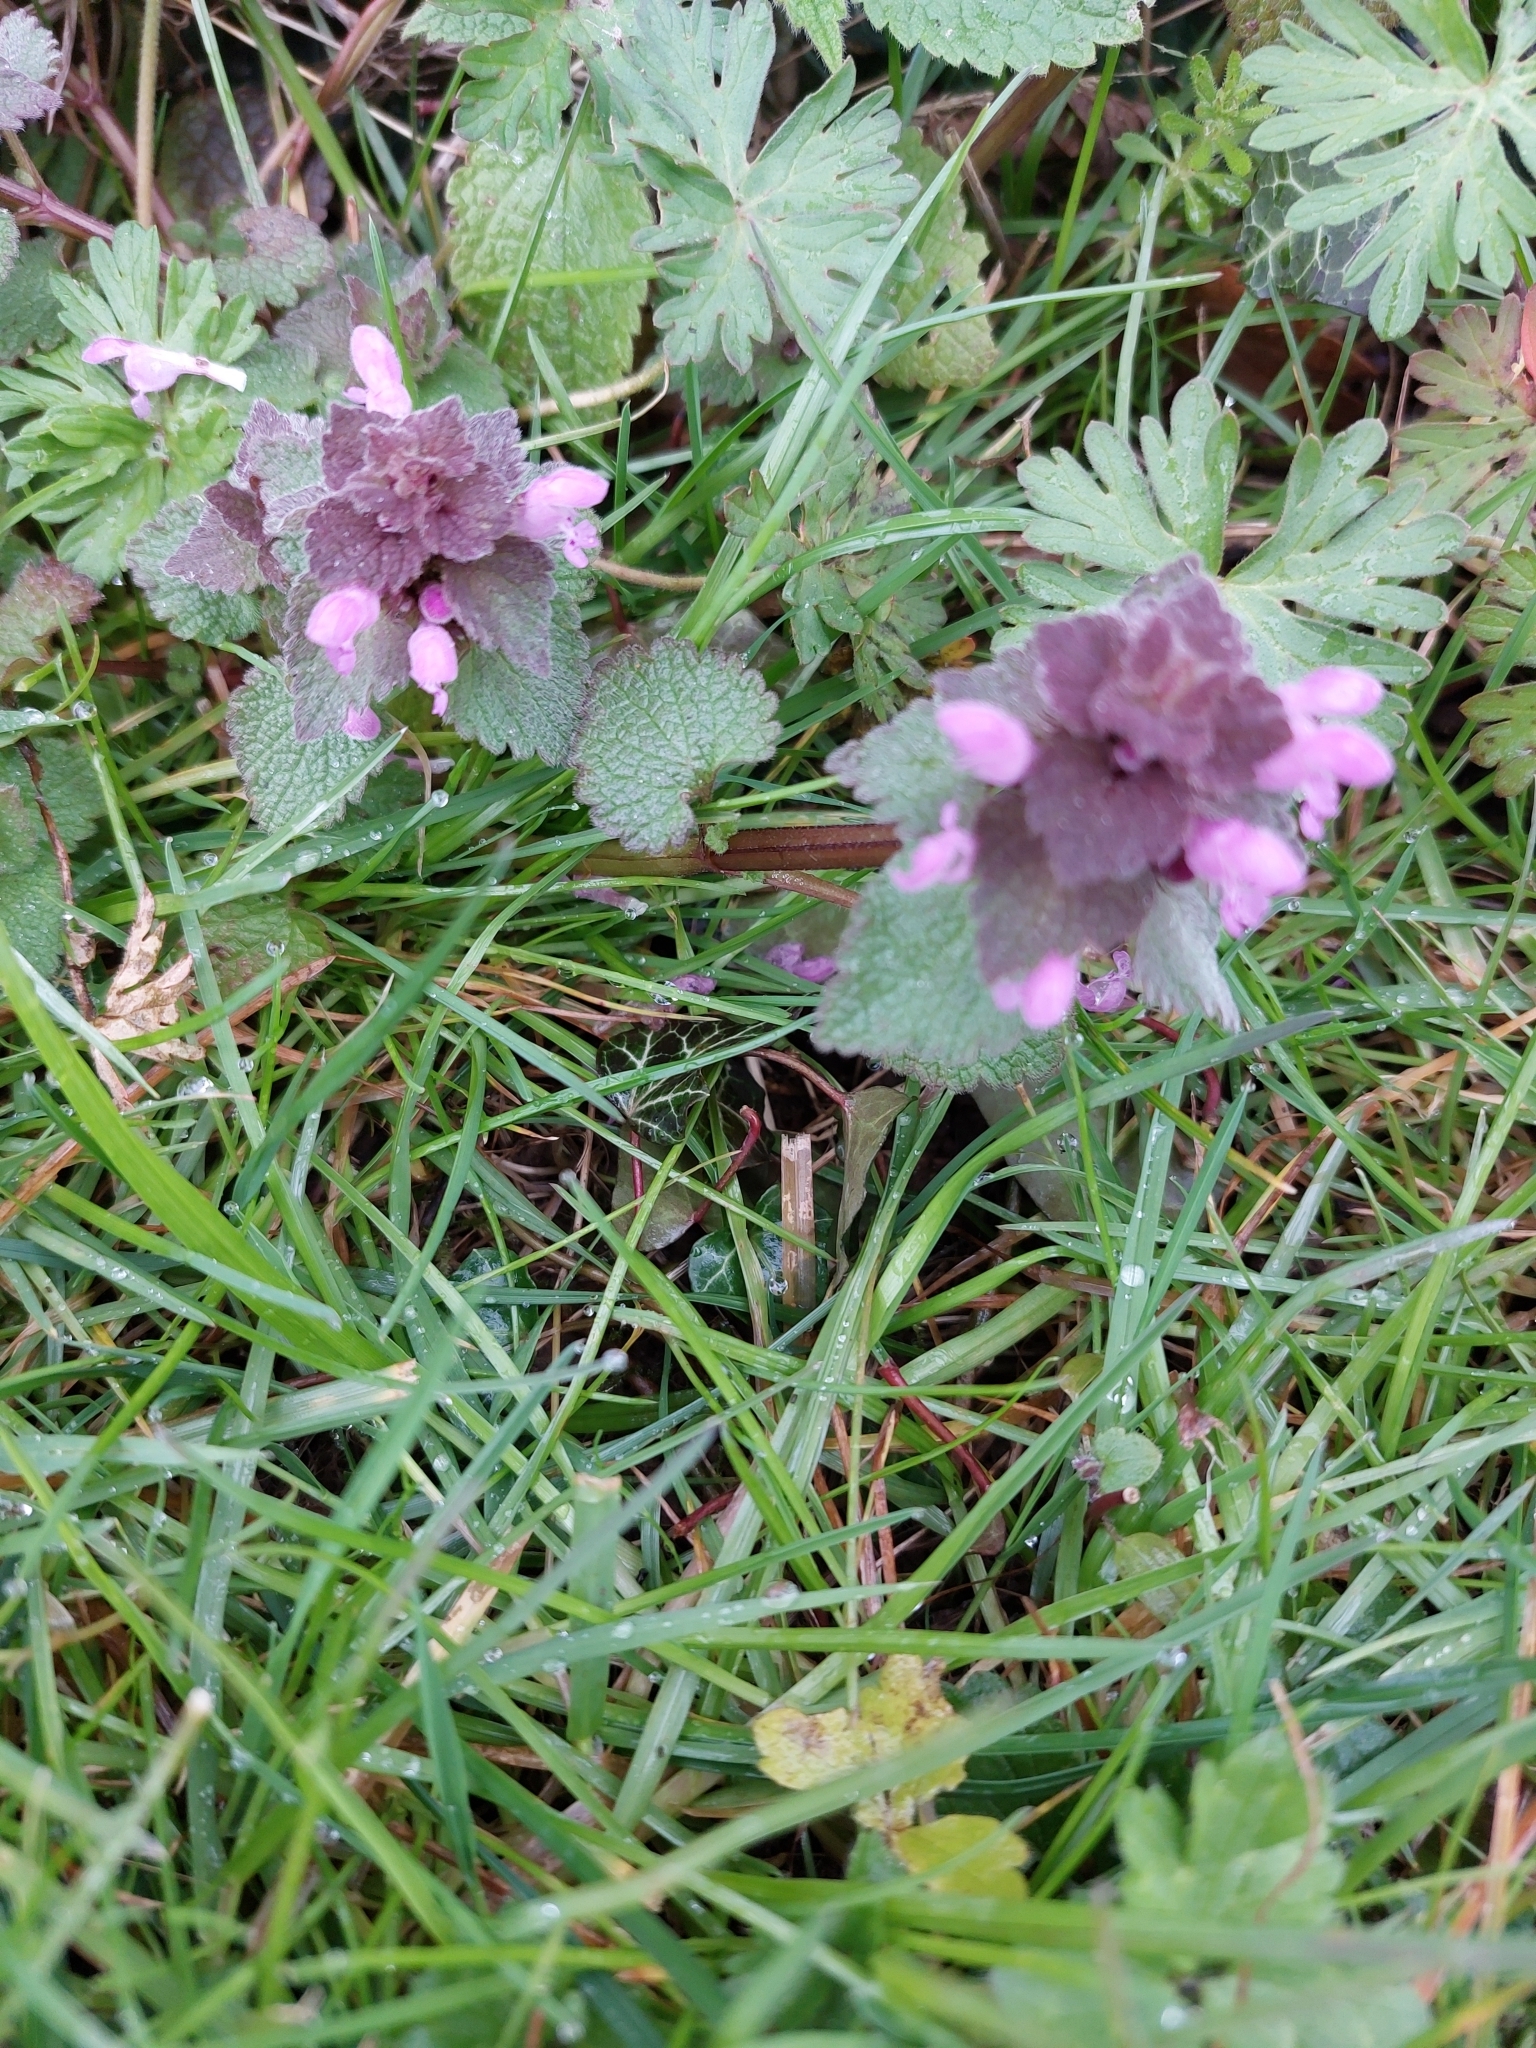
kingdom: Plantae
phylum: Tracheophyta
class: Magnoliopsida
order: Lamiales
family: Lamiaceae
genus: Lamium
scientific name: Lamium purpureum
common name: Red dead-nettle
